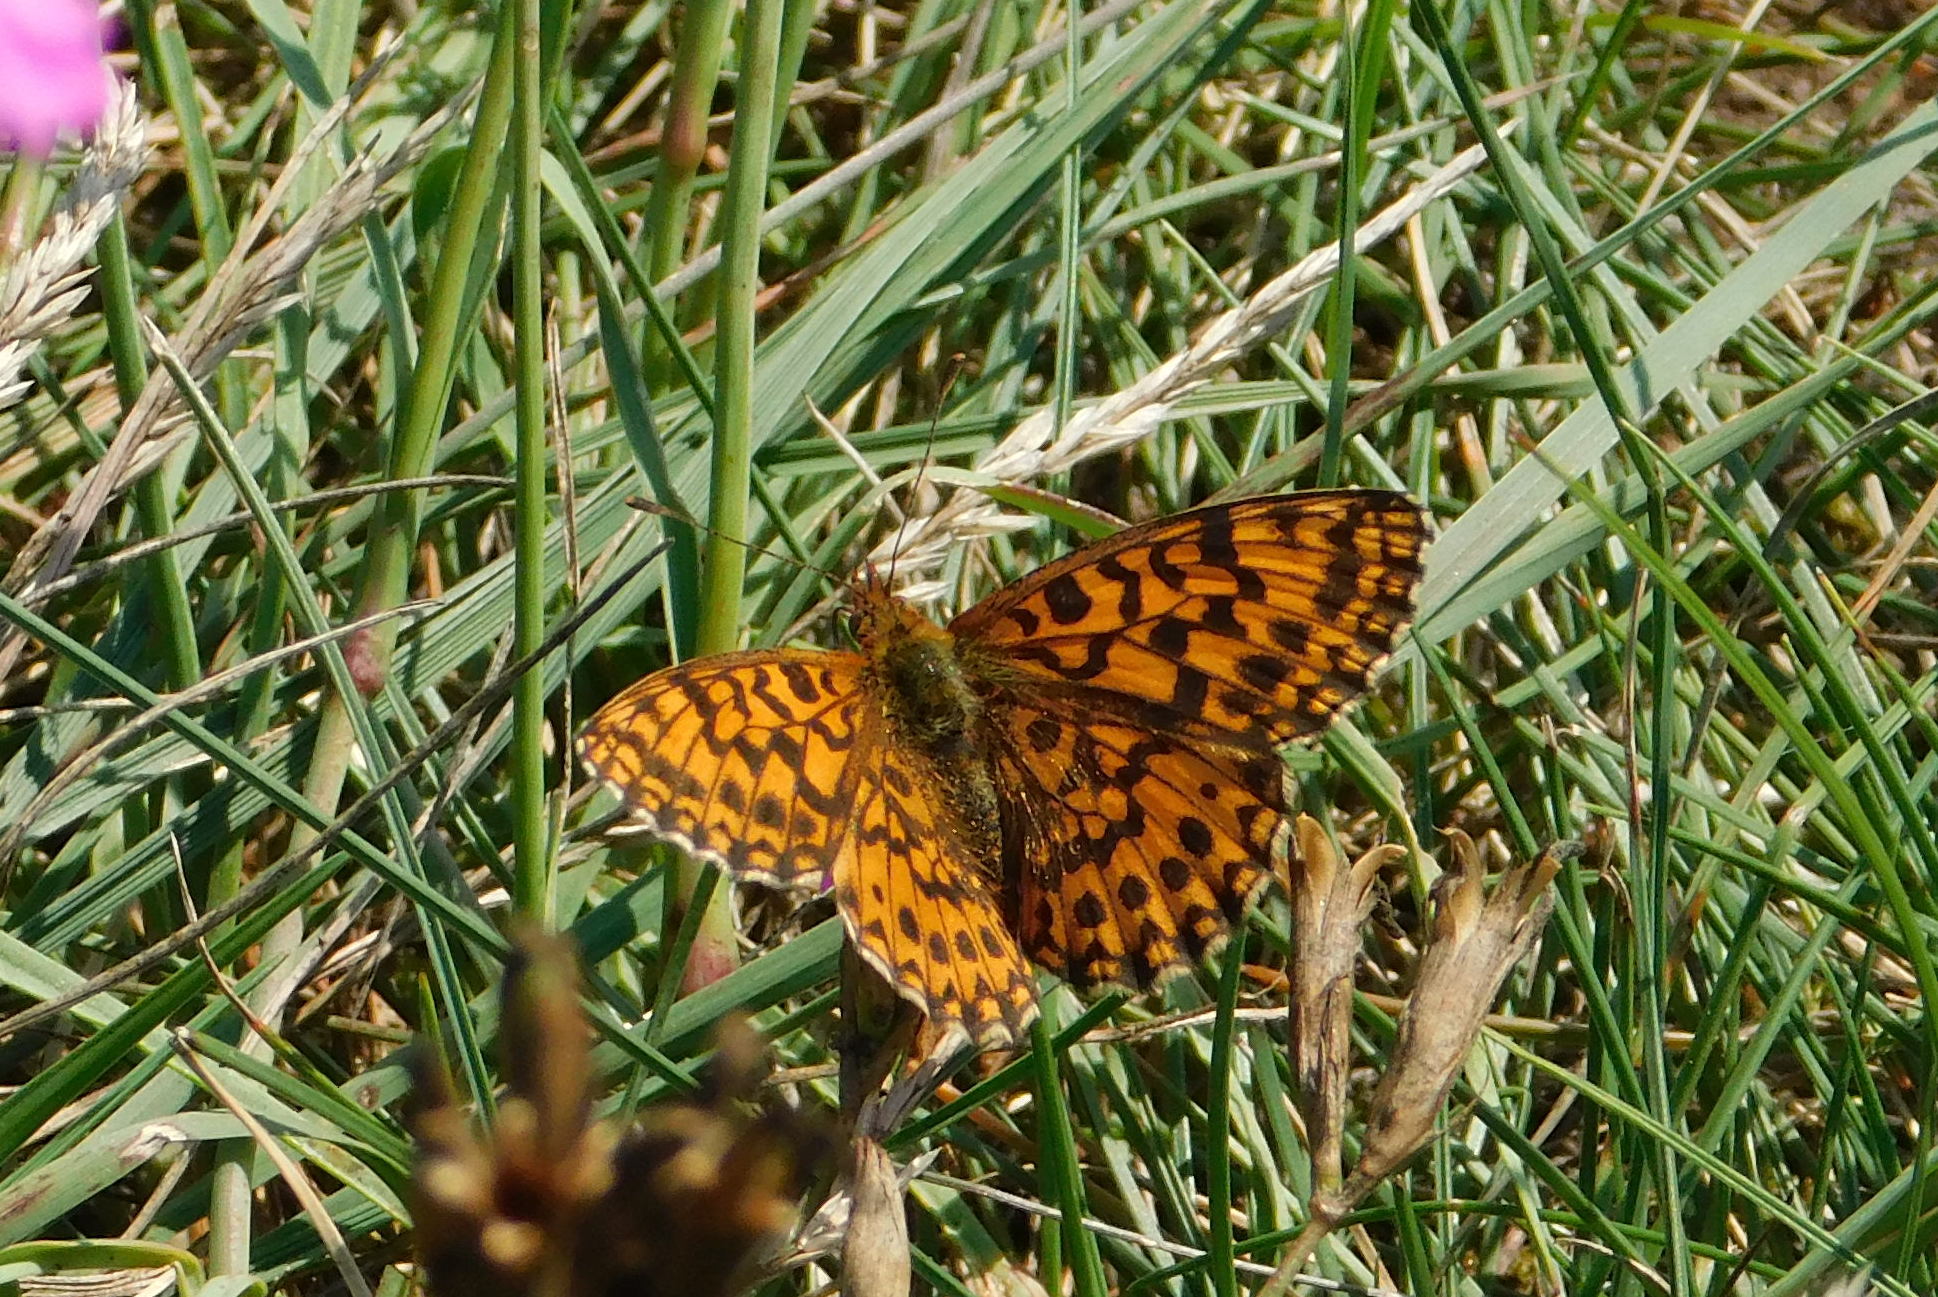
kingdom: Animalia
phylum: Arthropoda
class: Insecta
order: Lepidoptera
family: Nymphalidae
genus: Boloria
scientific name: Boloria dia
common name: Weaver's fritillary
